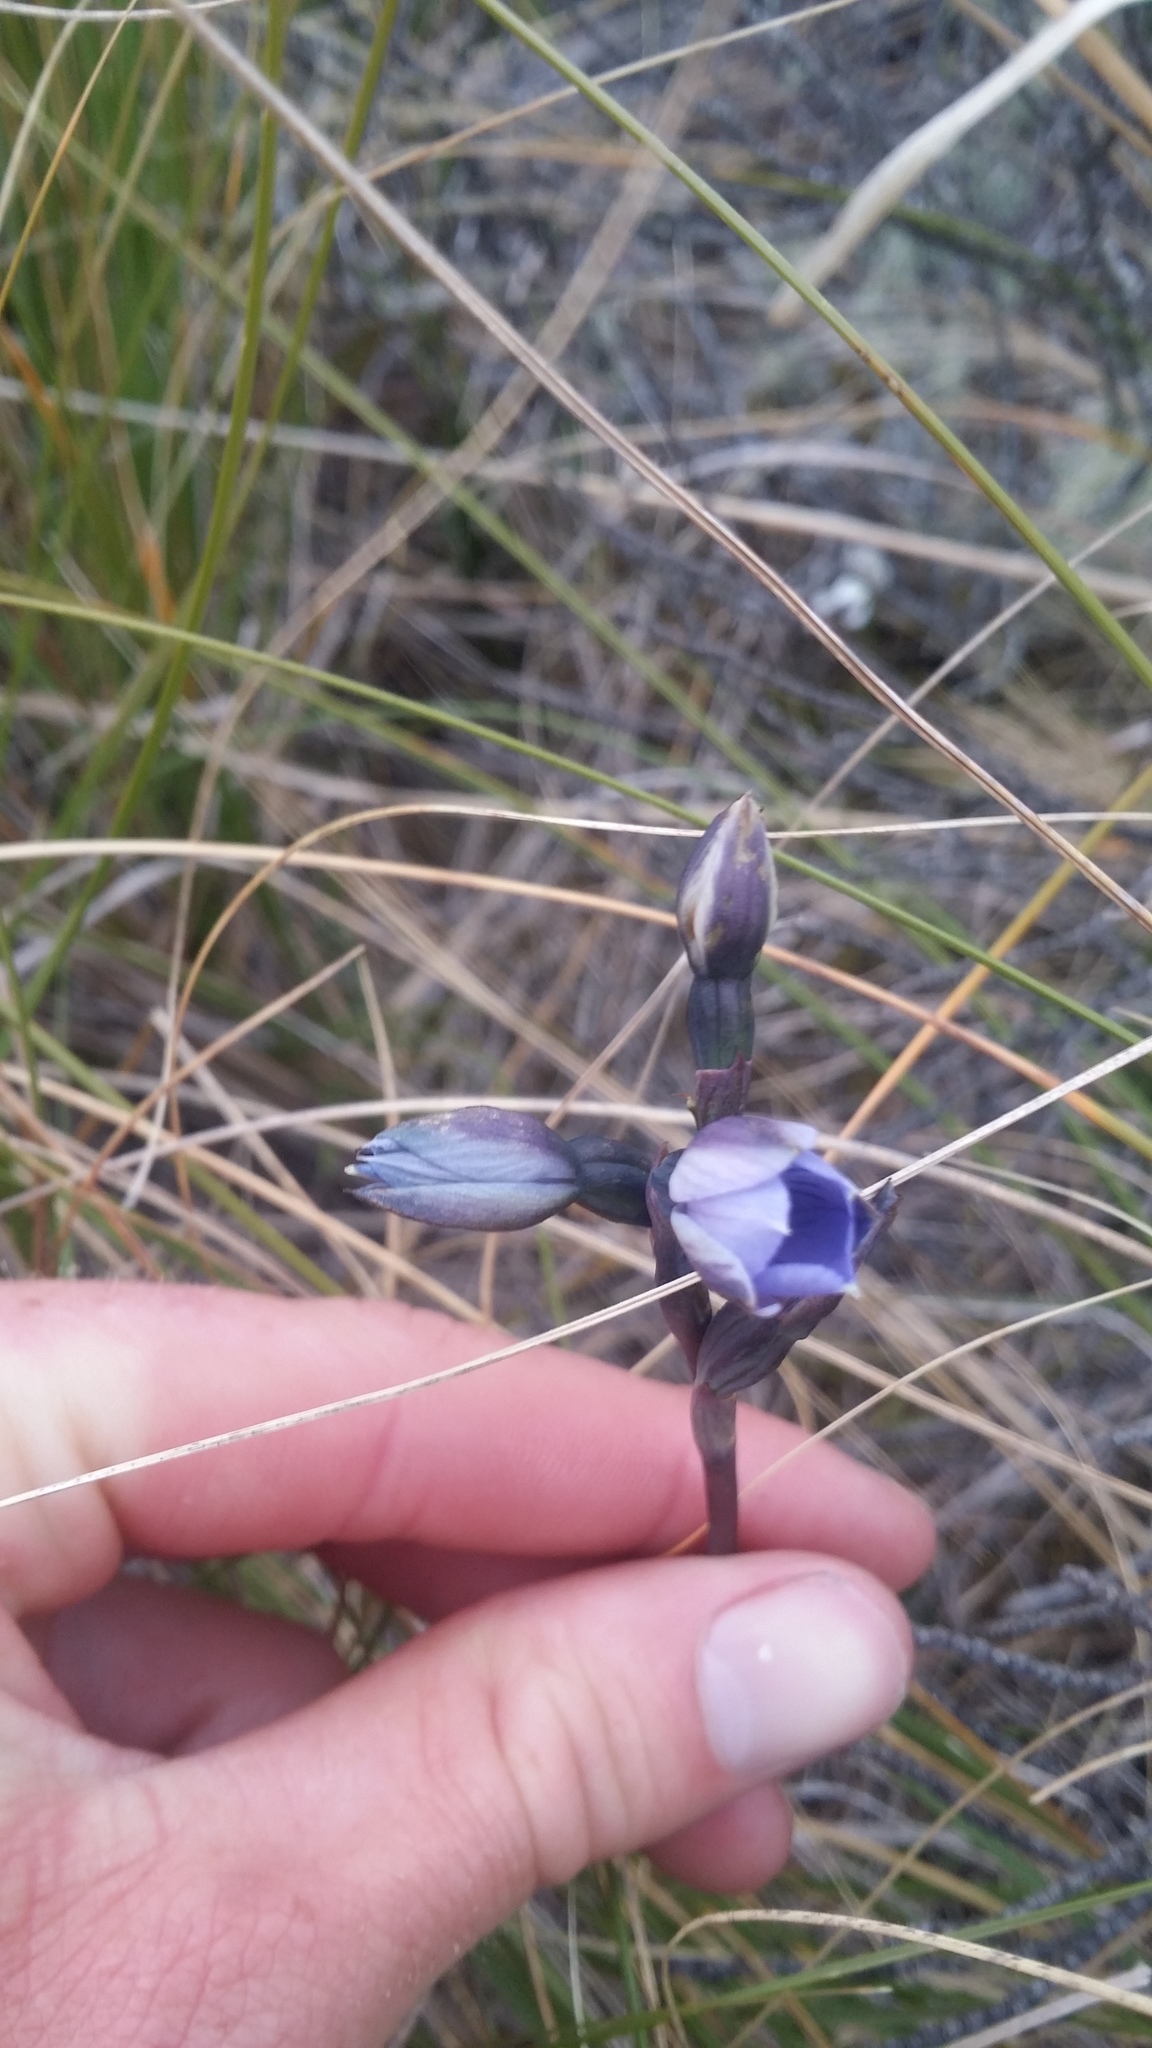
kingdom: Plantae
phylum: Tracheophyta
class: Liliopsida
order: Asparagales
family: Orchidaceae
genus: Thelymitra
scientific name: Thelymitra cyanea
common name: Blue sun-orchid
